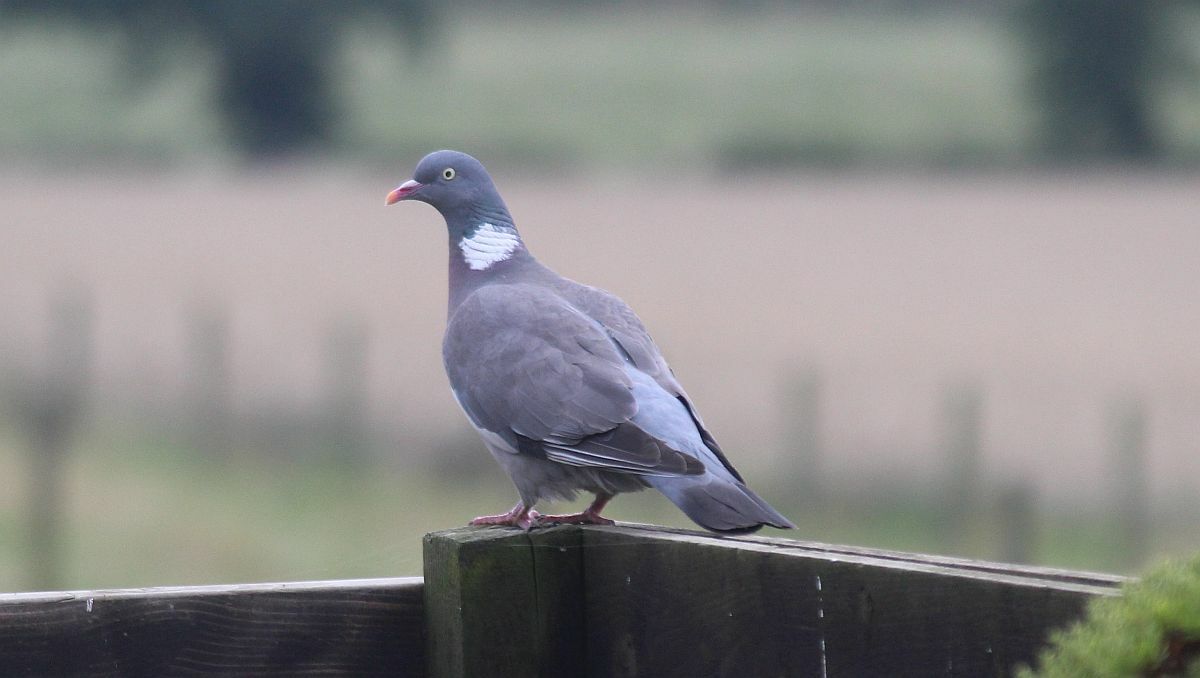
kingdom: Animalia
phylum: Chordata
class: Aves
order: Columbiformes
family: Columbidae
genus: Columba
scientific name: Columba palumbus
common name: Common wood pigeon
